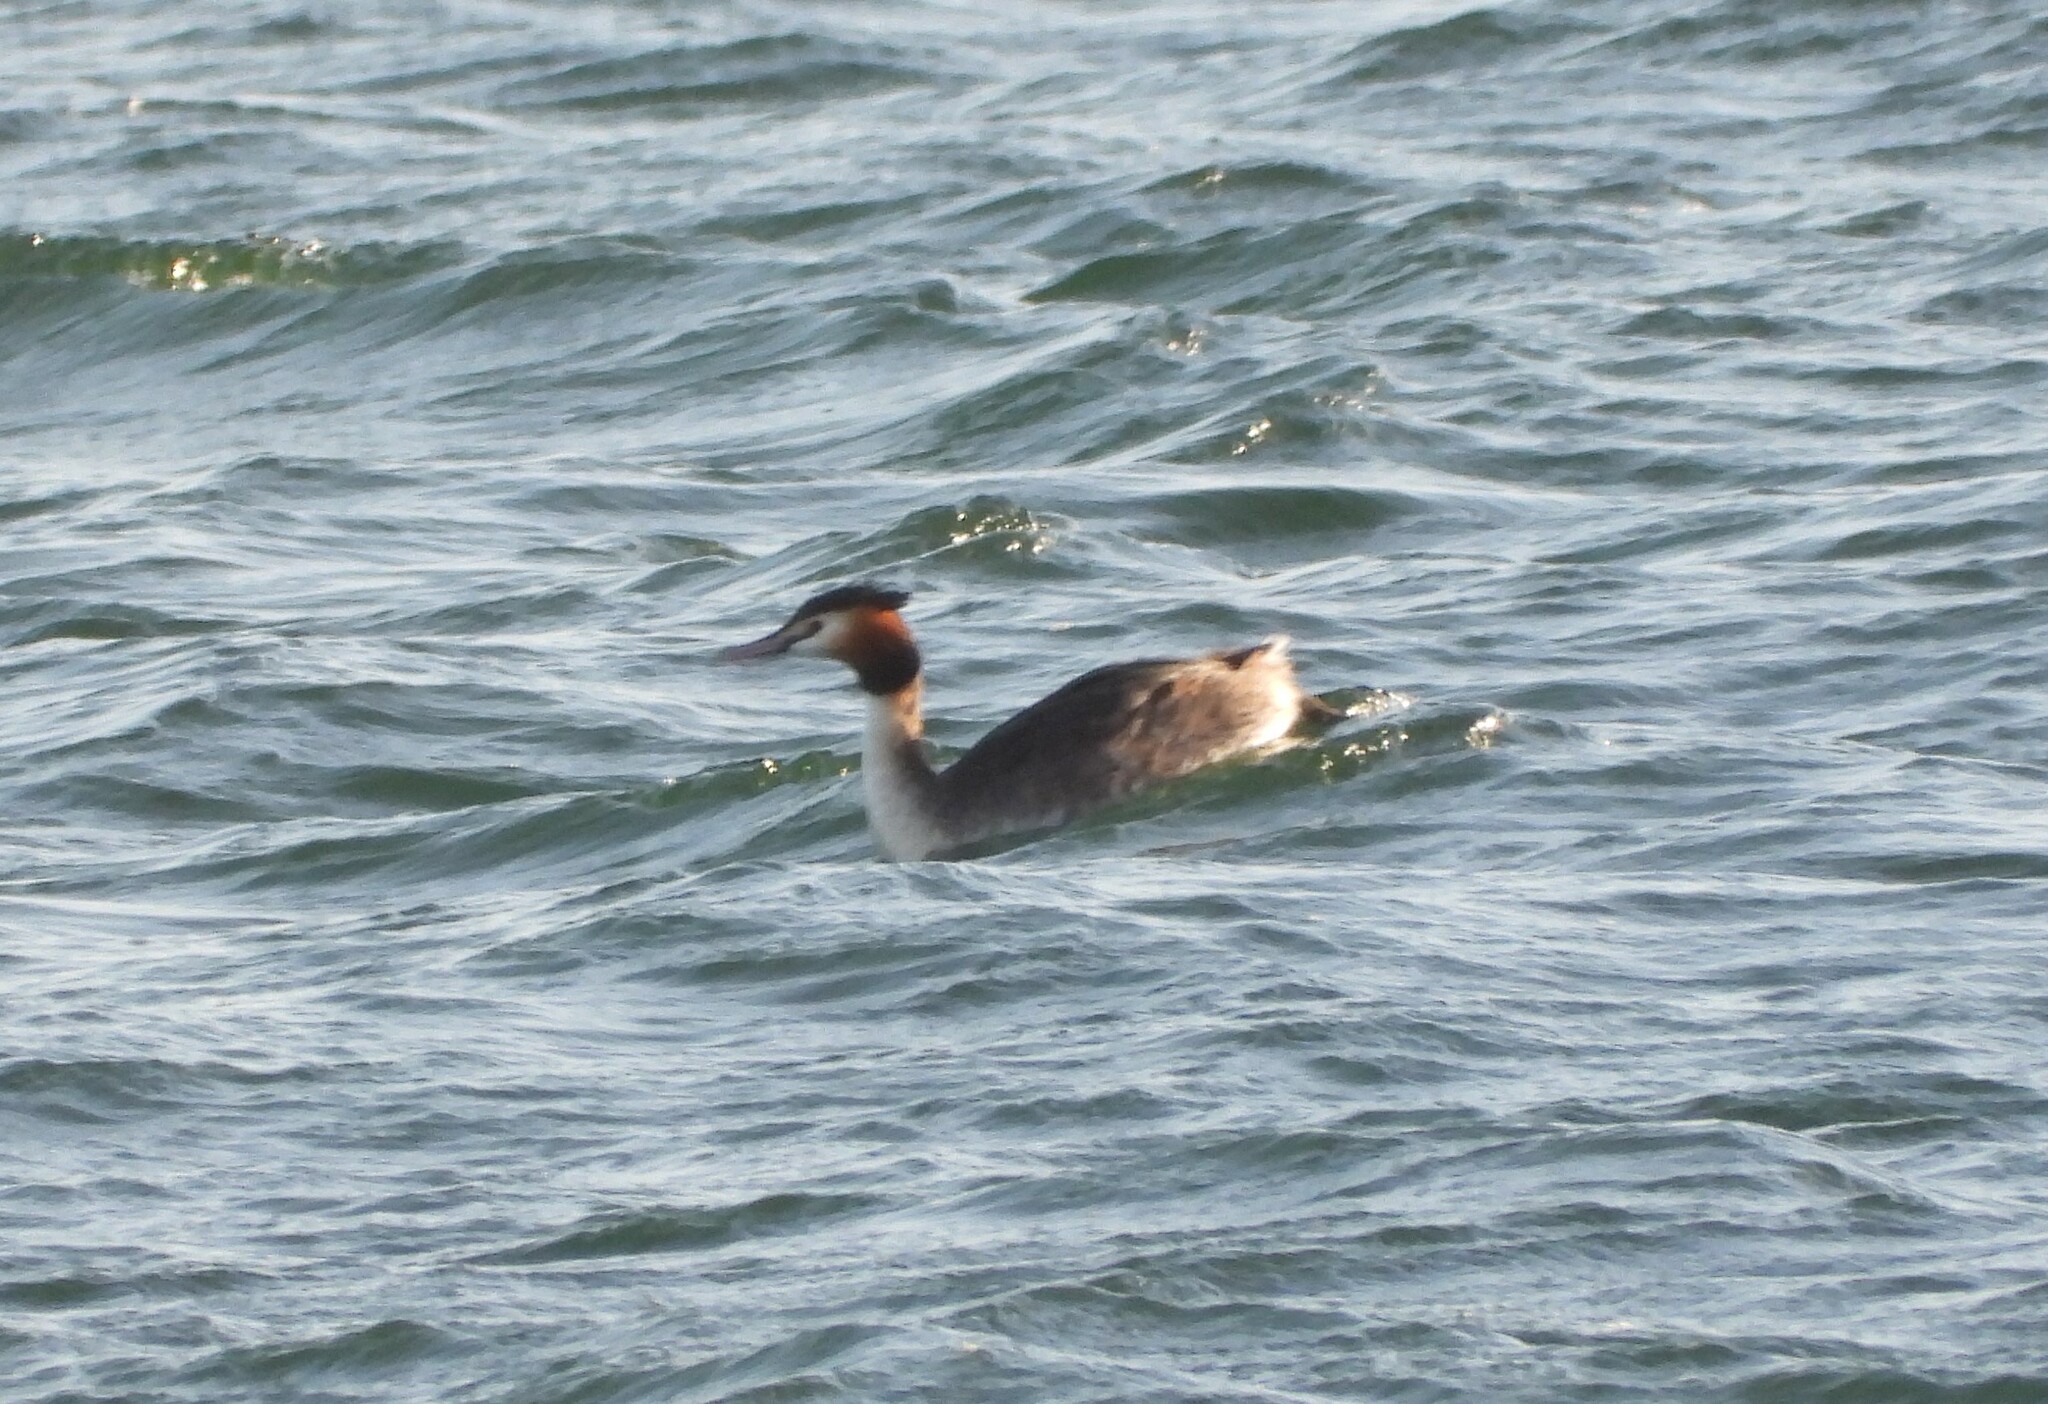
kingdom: Animalia
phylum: Chordata
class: Aves
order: Podicipediformes
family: Podicipedidae
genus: Podiceps
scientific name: Podiceps cristatus
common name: Great crested grebe
